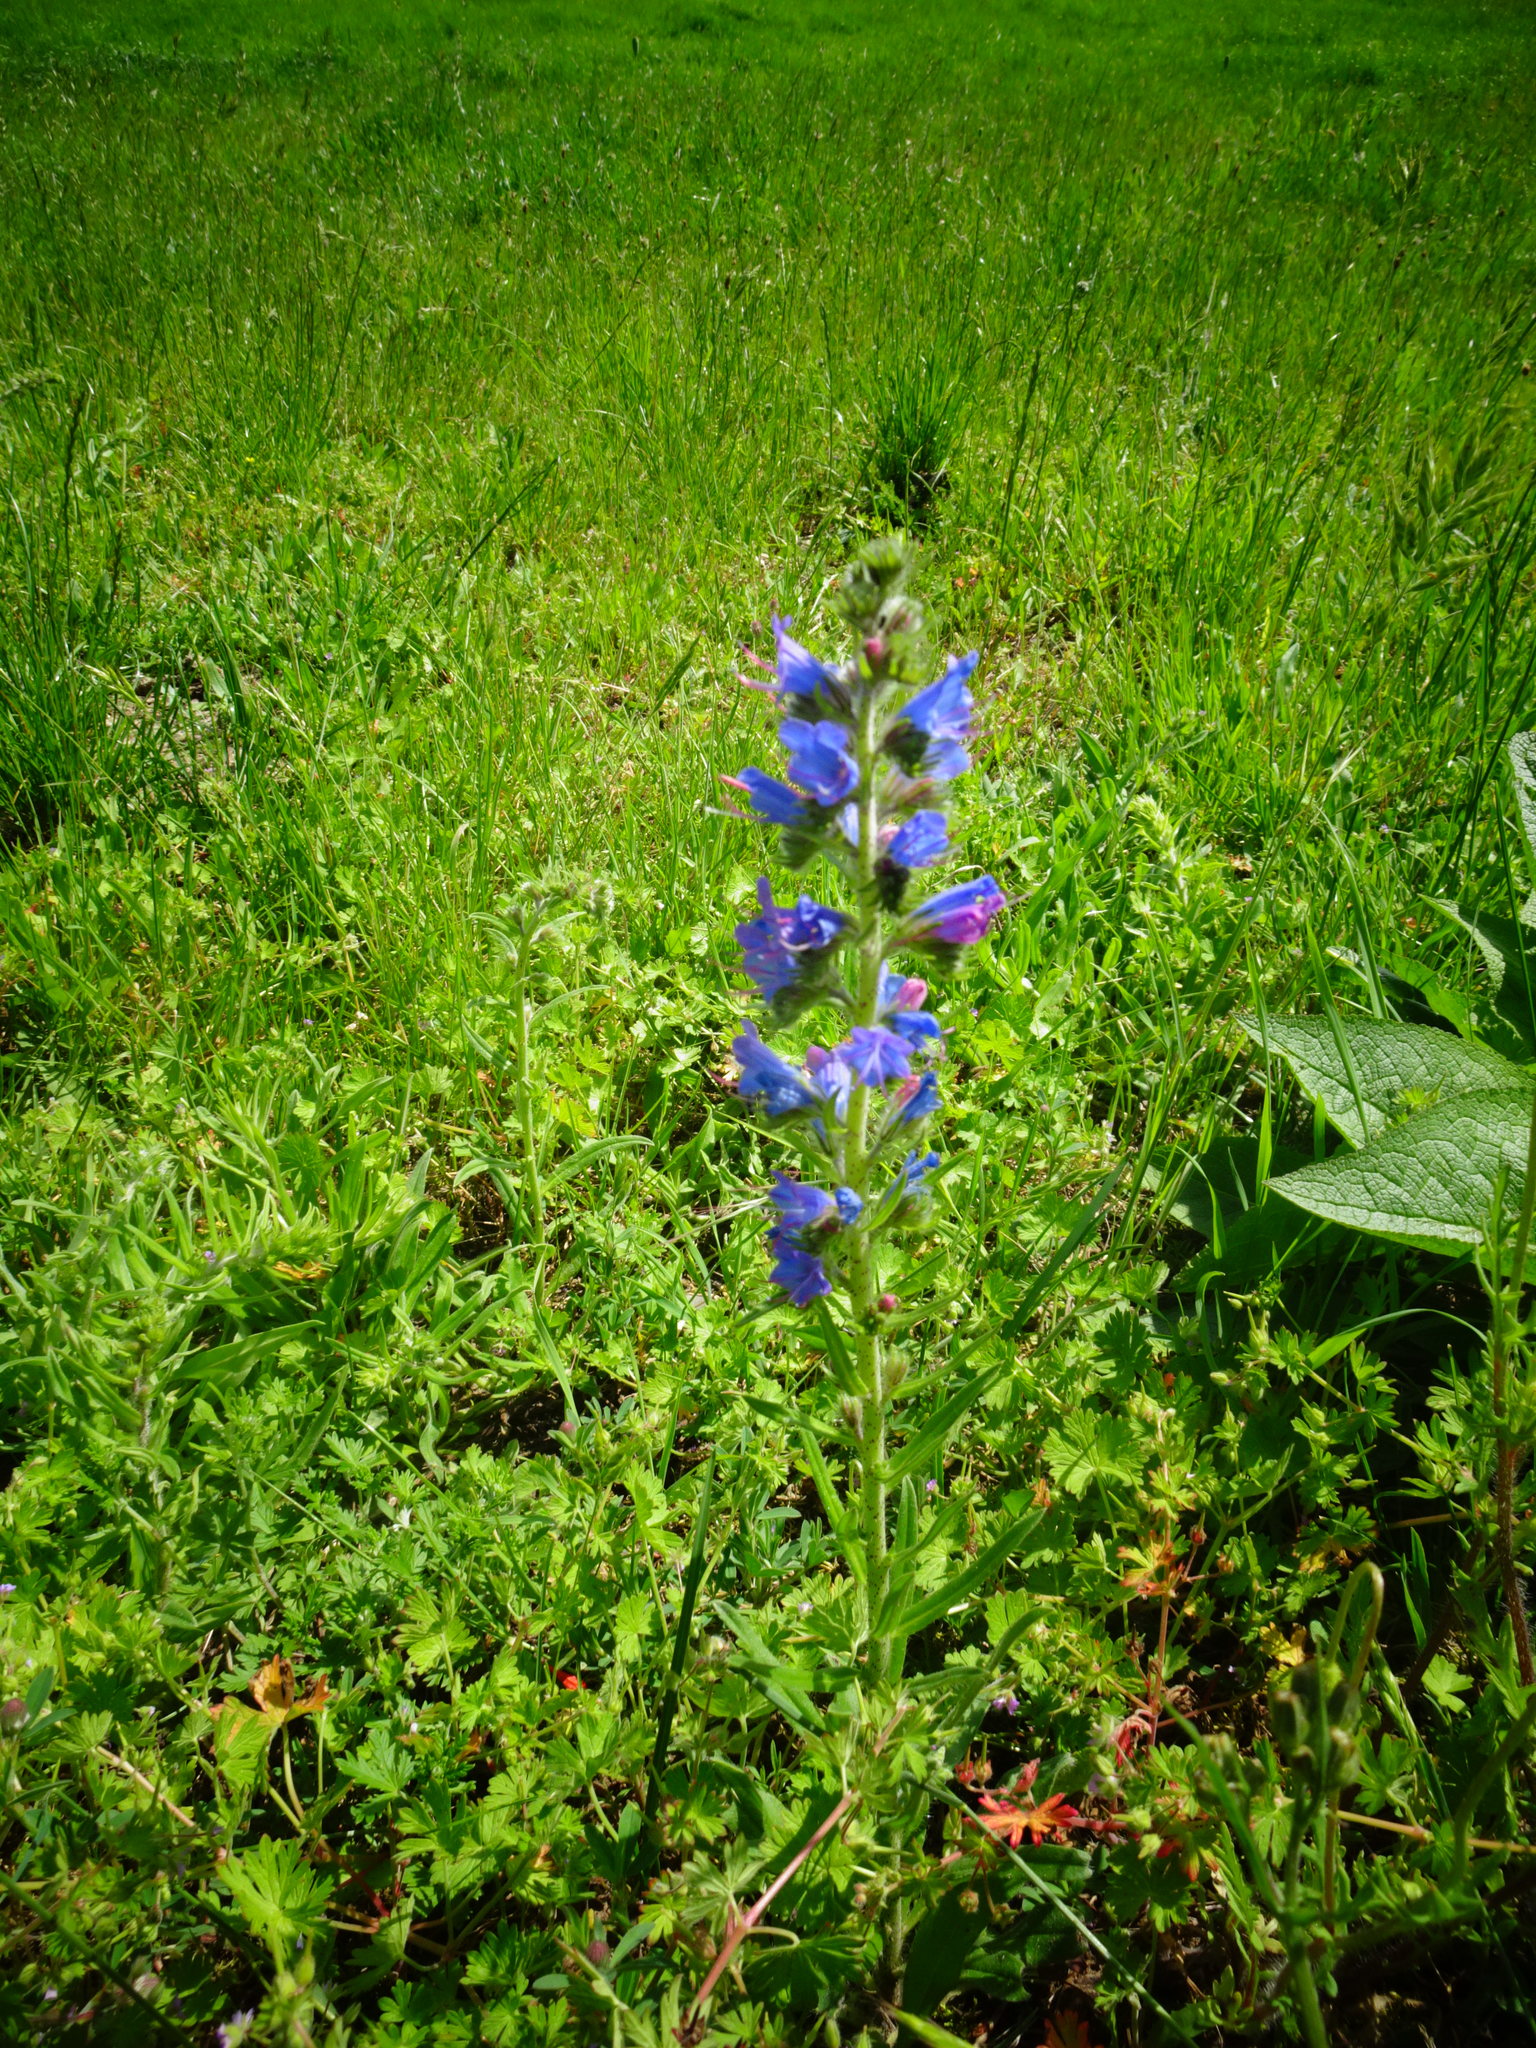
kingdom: Plantae
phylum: Tracheophyta
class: Magnoliopsida
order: Boraginales
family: Boraginaceae
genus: Echium
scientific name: Echium vulgare
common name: Common viper's bugloss
